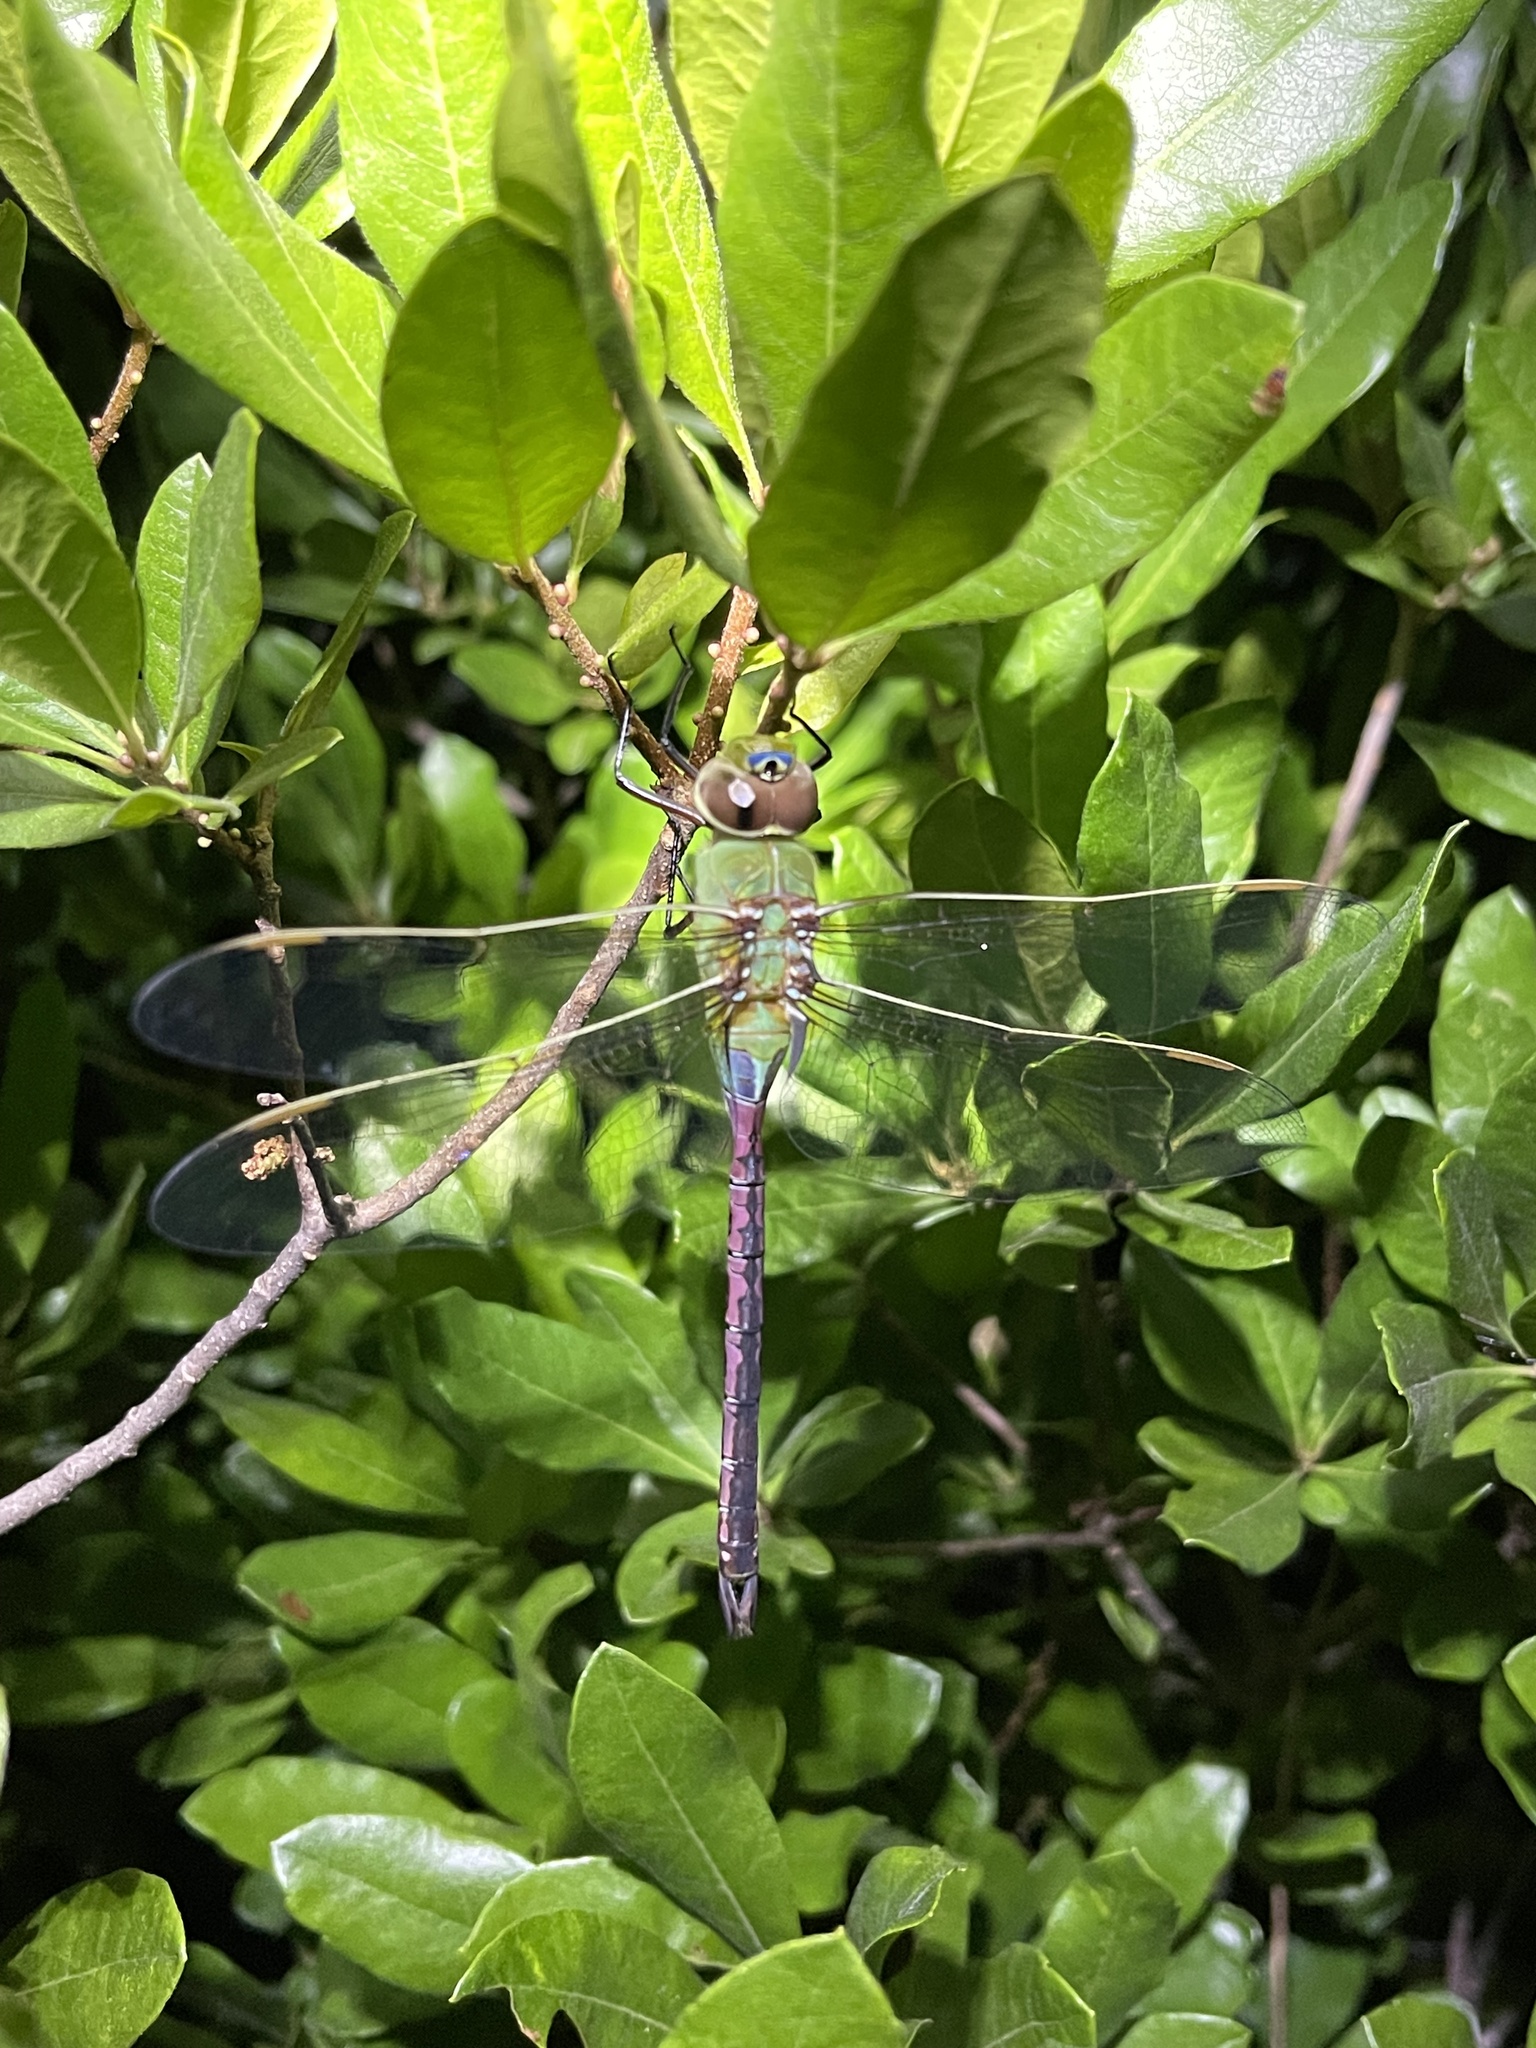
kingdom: Animalia
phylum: Arthropoda
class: Insecta
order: Odonata
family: Aeshnidae
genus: Anax
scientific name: Anax junius
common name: Common green darner
